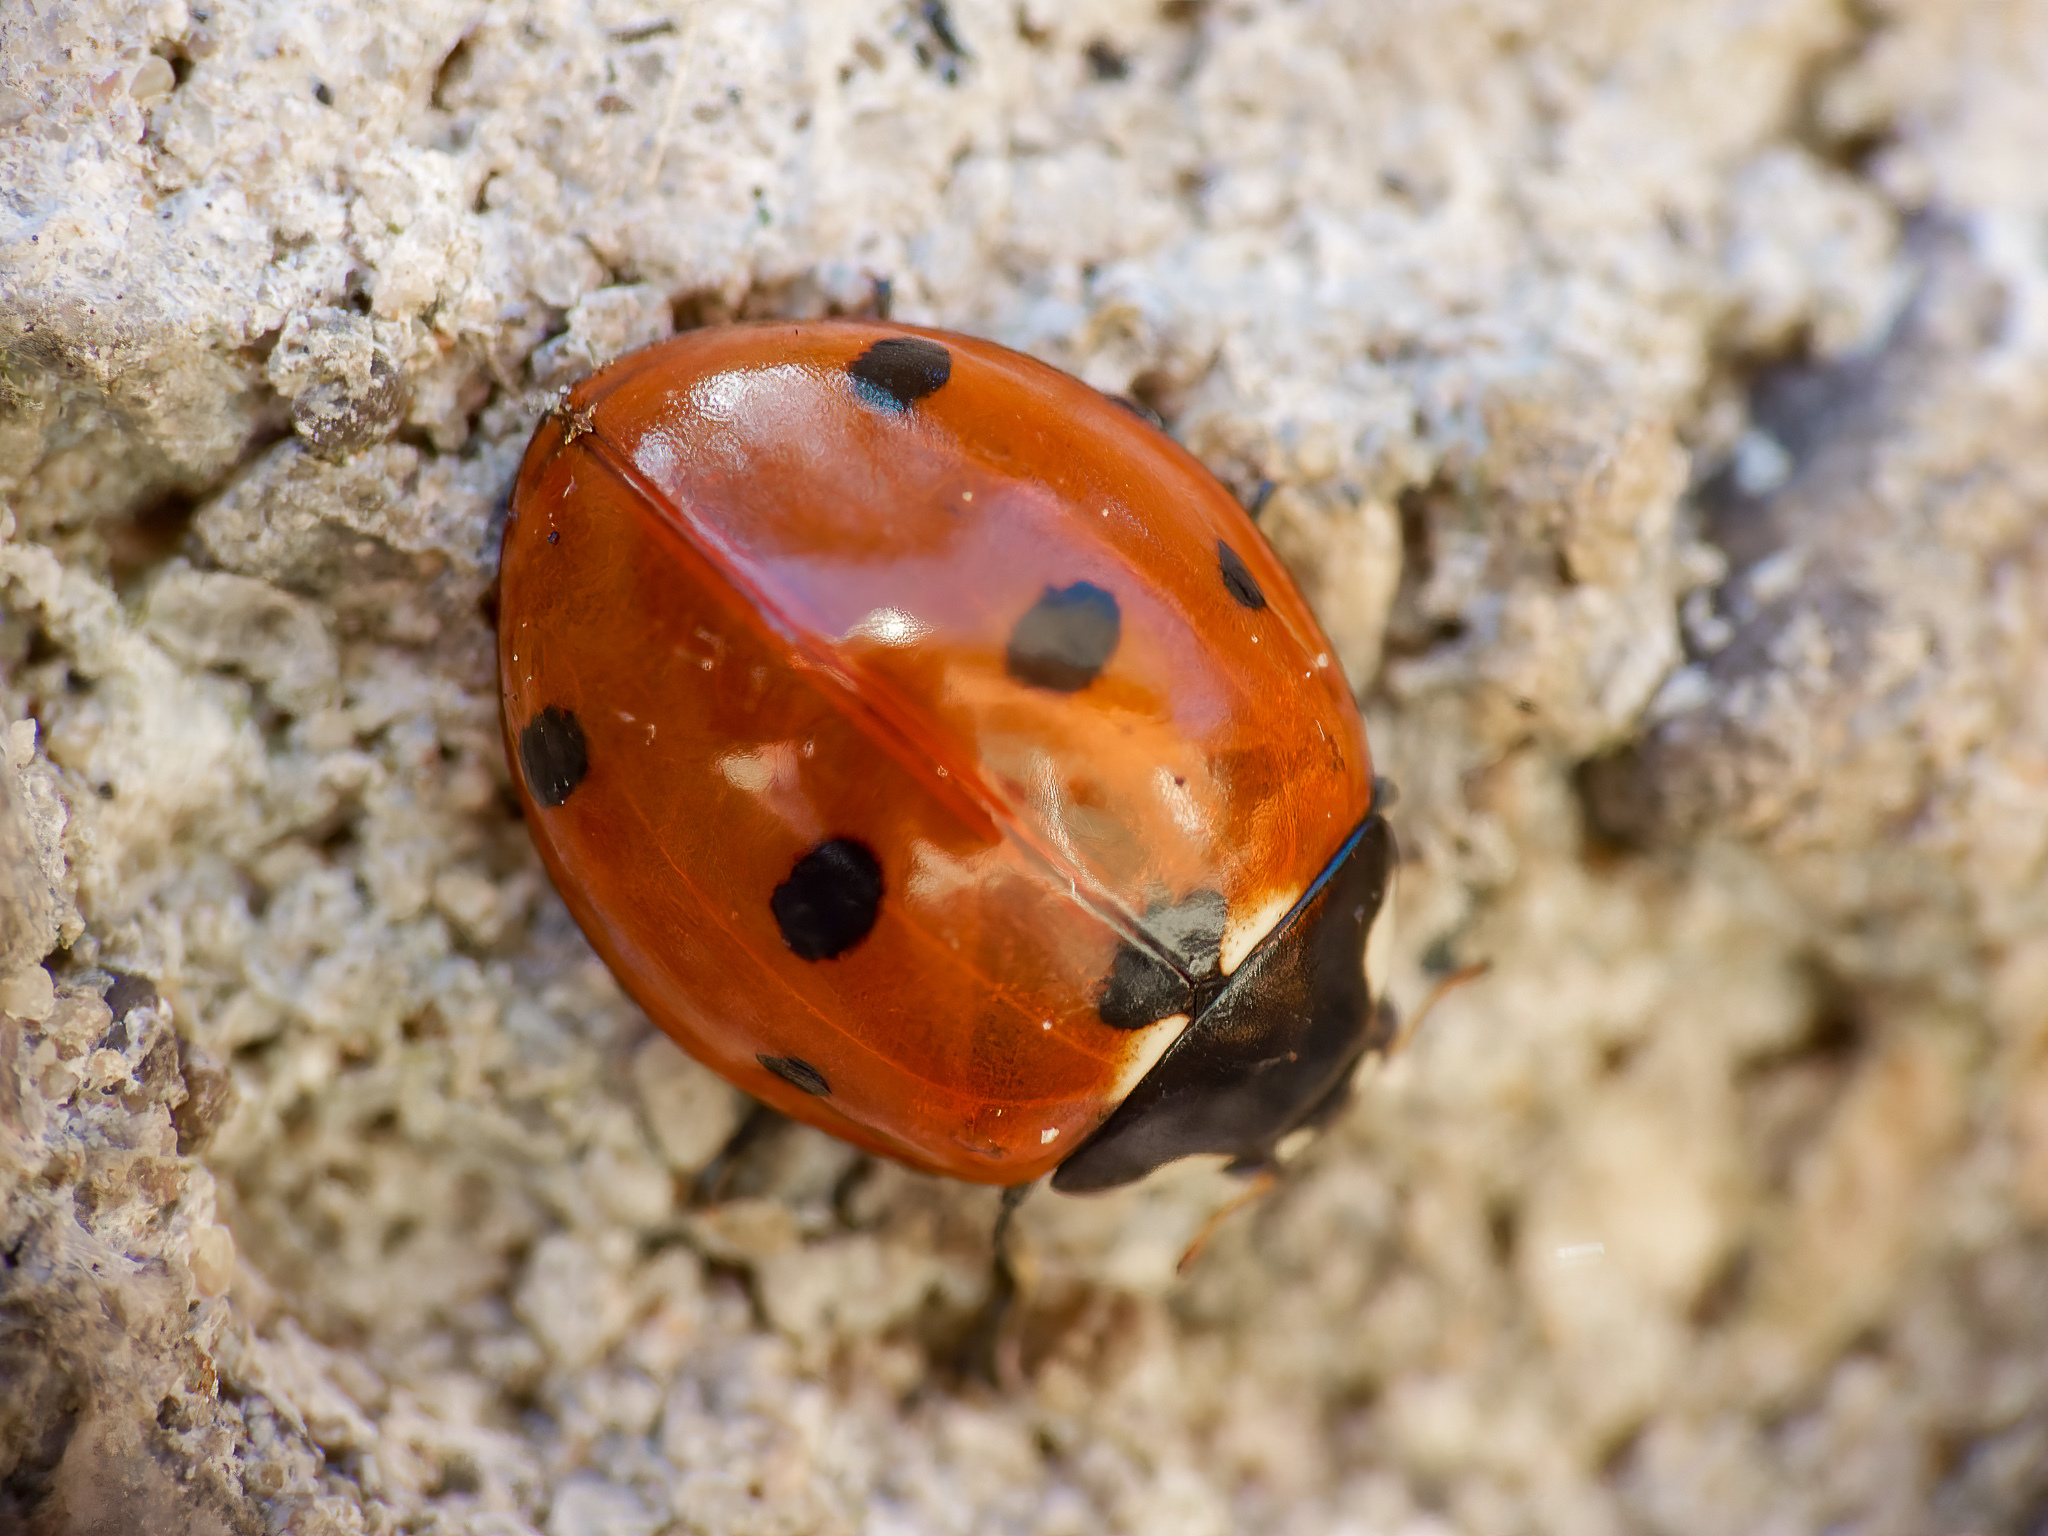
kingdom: Animalia
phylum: Arthropoda
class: Insecta
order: Coleoptera
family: Coccinellidae
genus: Coccinella
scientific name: Coccinella septempunctata
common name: Sevenspotted lady beetle
